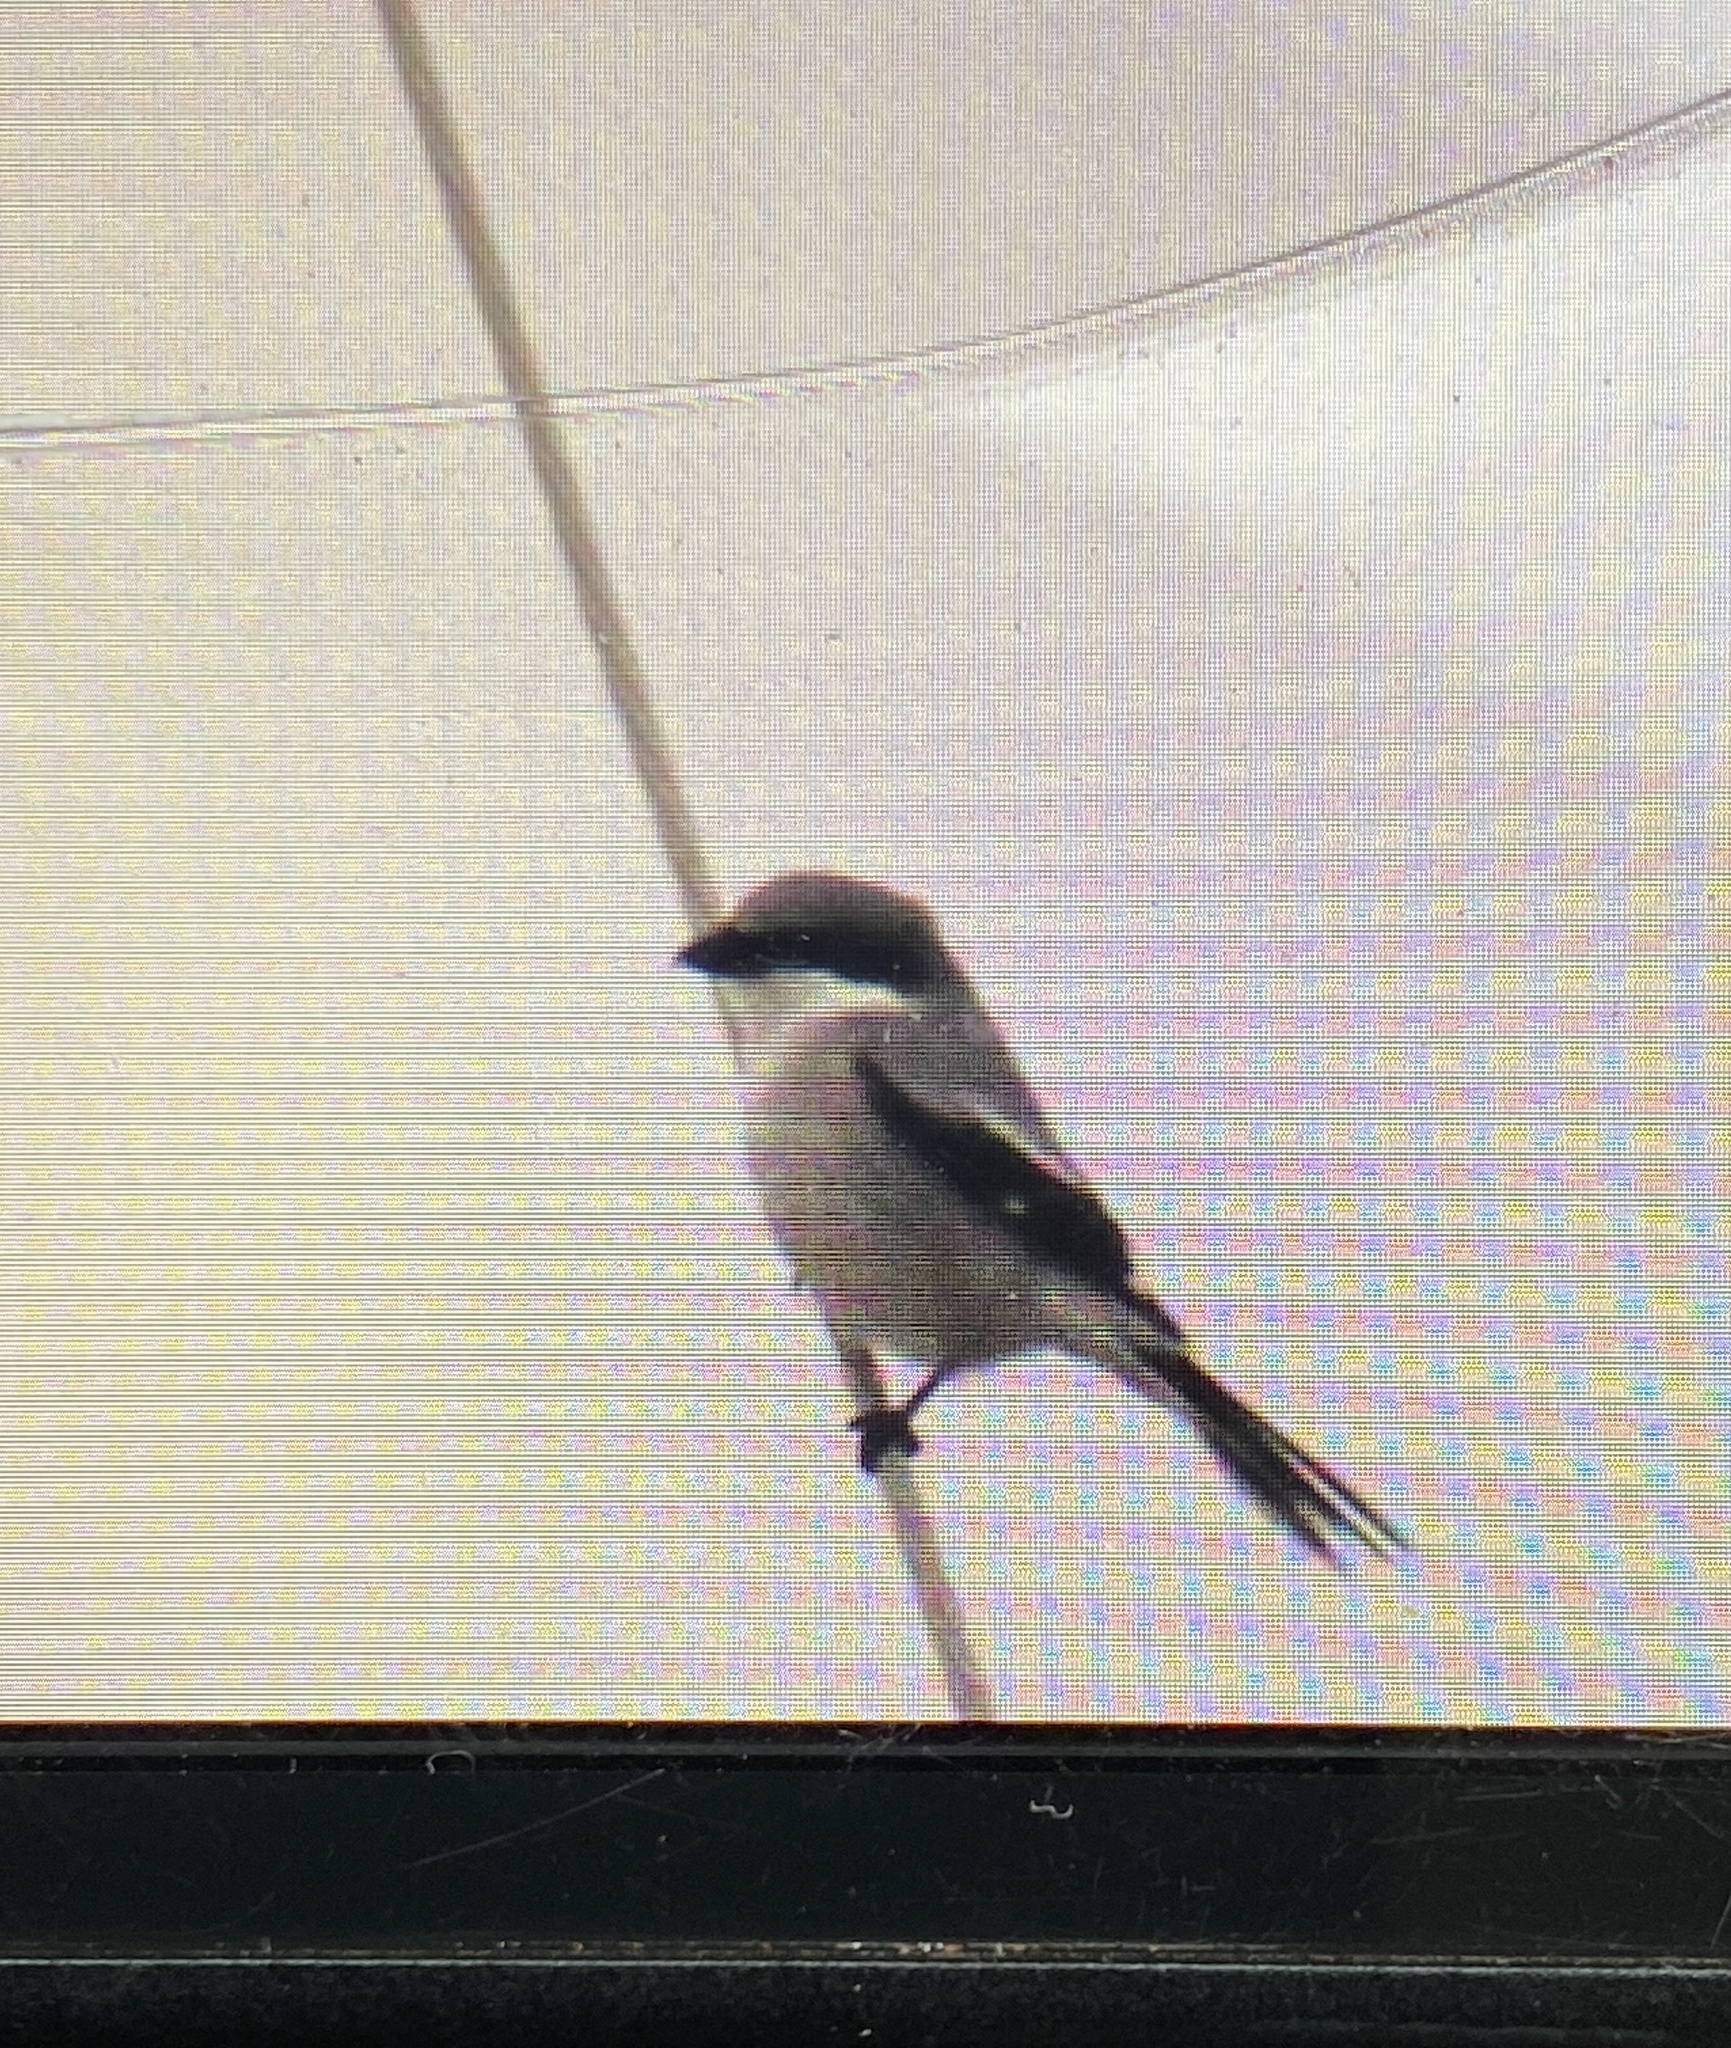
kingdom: Animalia
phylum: Chordata
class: Aves
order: Passeriformes
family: Laniidae
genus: Lanius
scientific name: Lanius ludovicianus
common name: Loggerhead shrike
